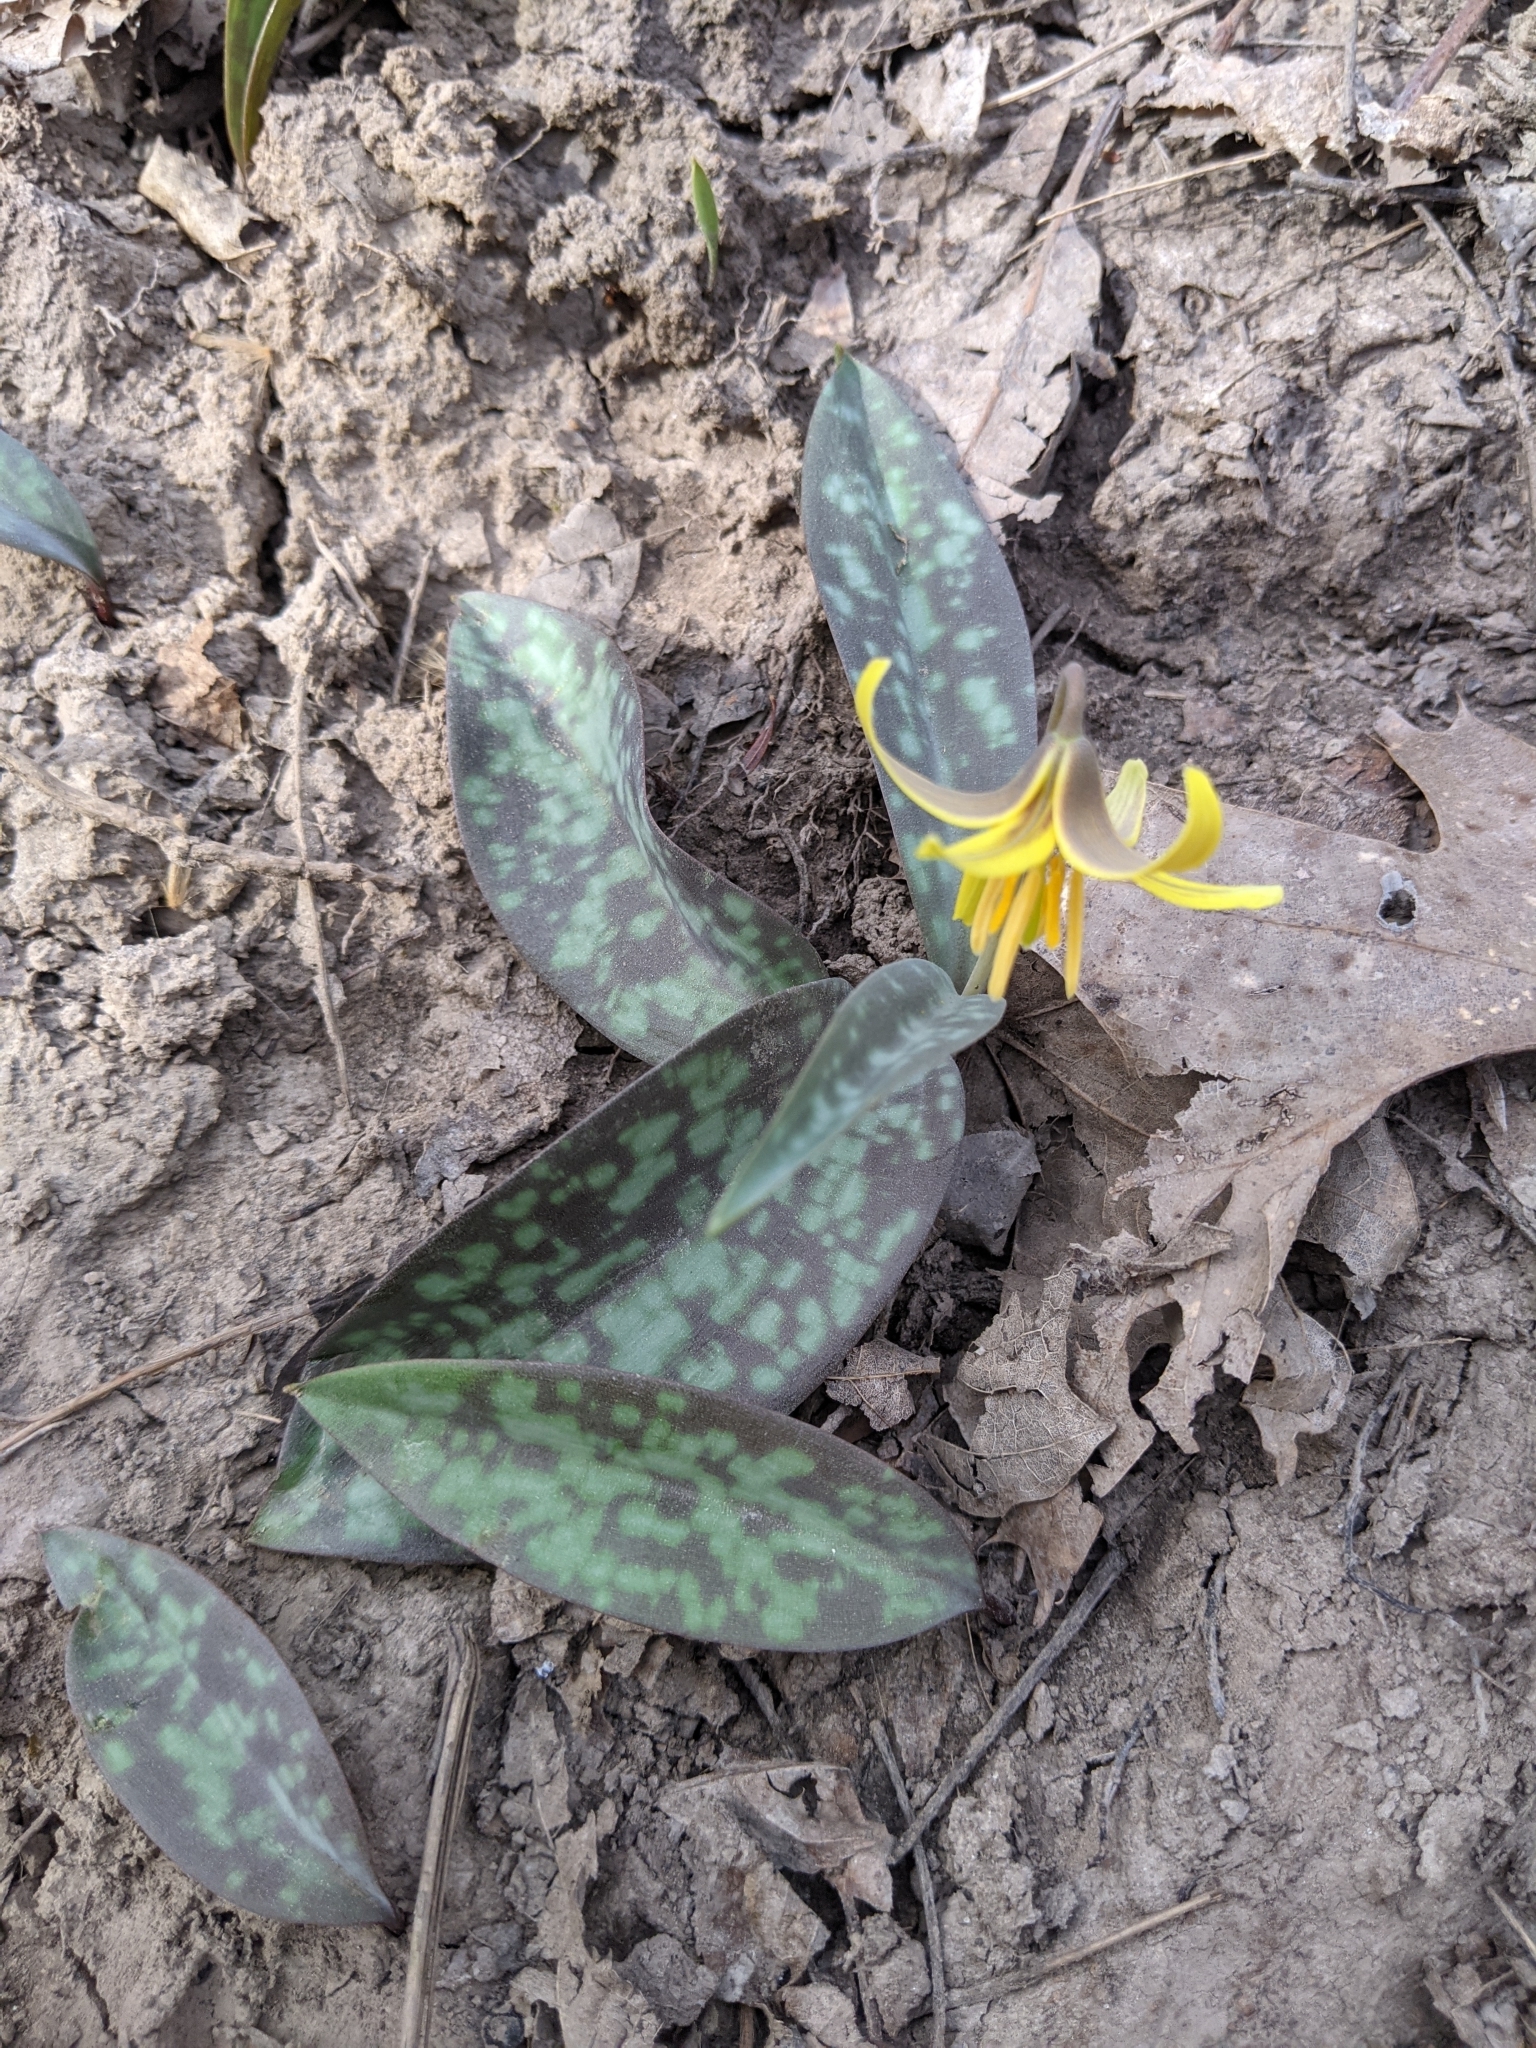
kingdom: Plantae
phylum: Tracheophyta
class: Liliopsida
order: Liliales
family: Liliaceae
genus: Erythronium
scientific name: Erythronium americanum
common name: Yellow adder's-tongue
